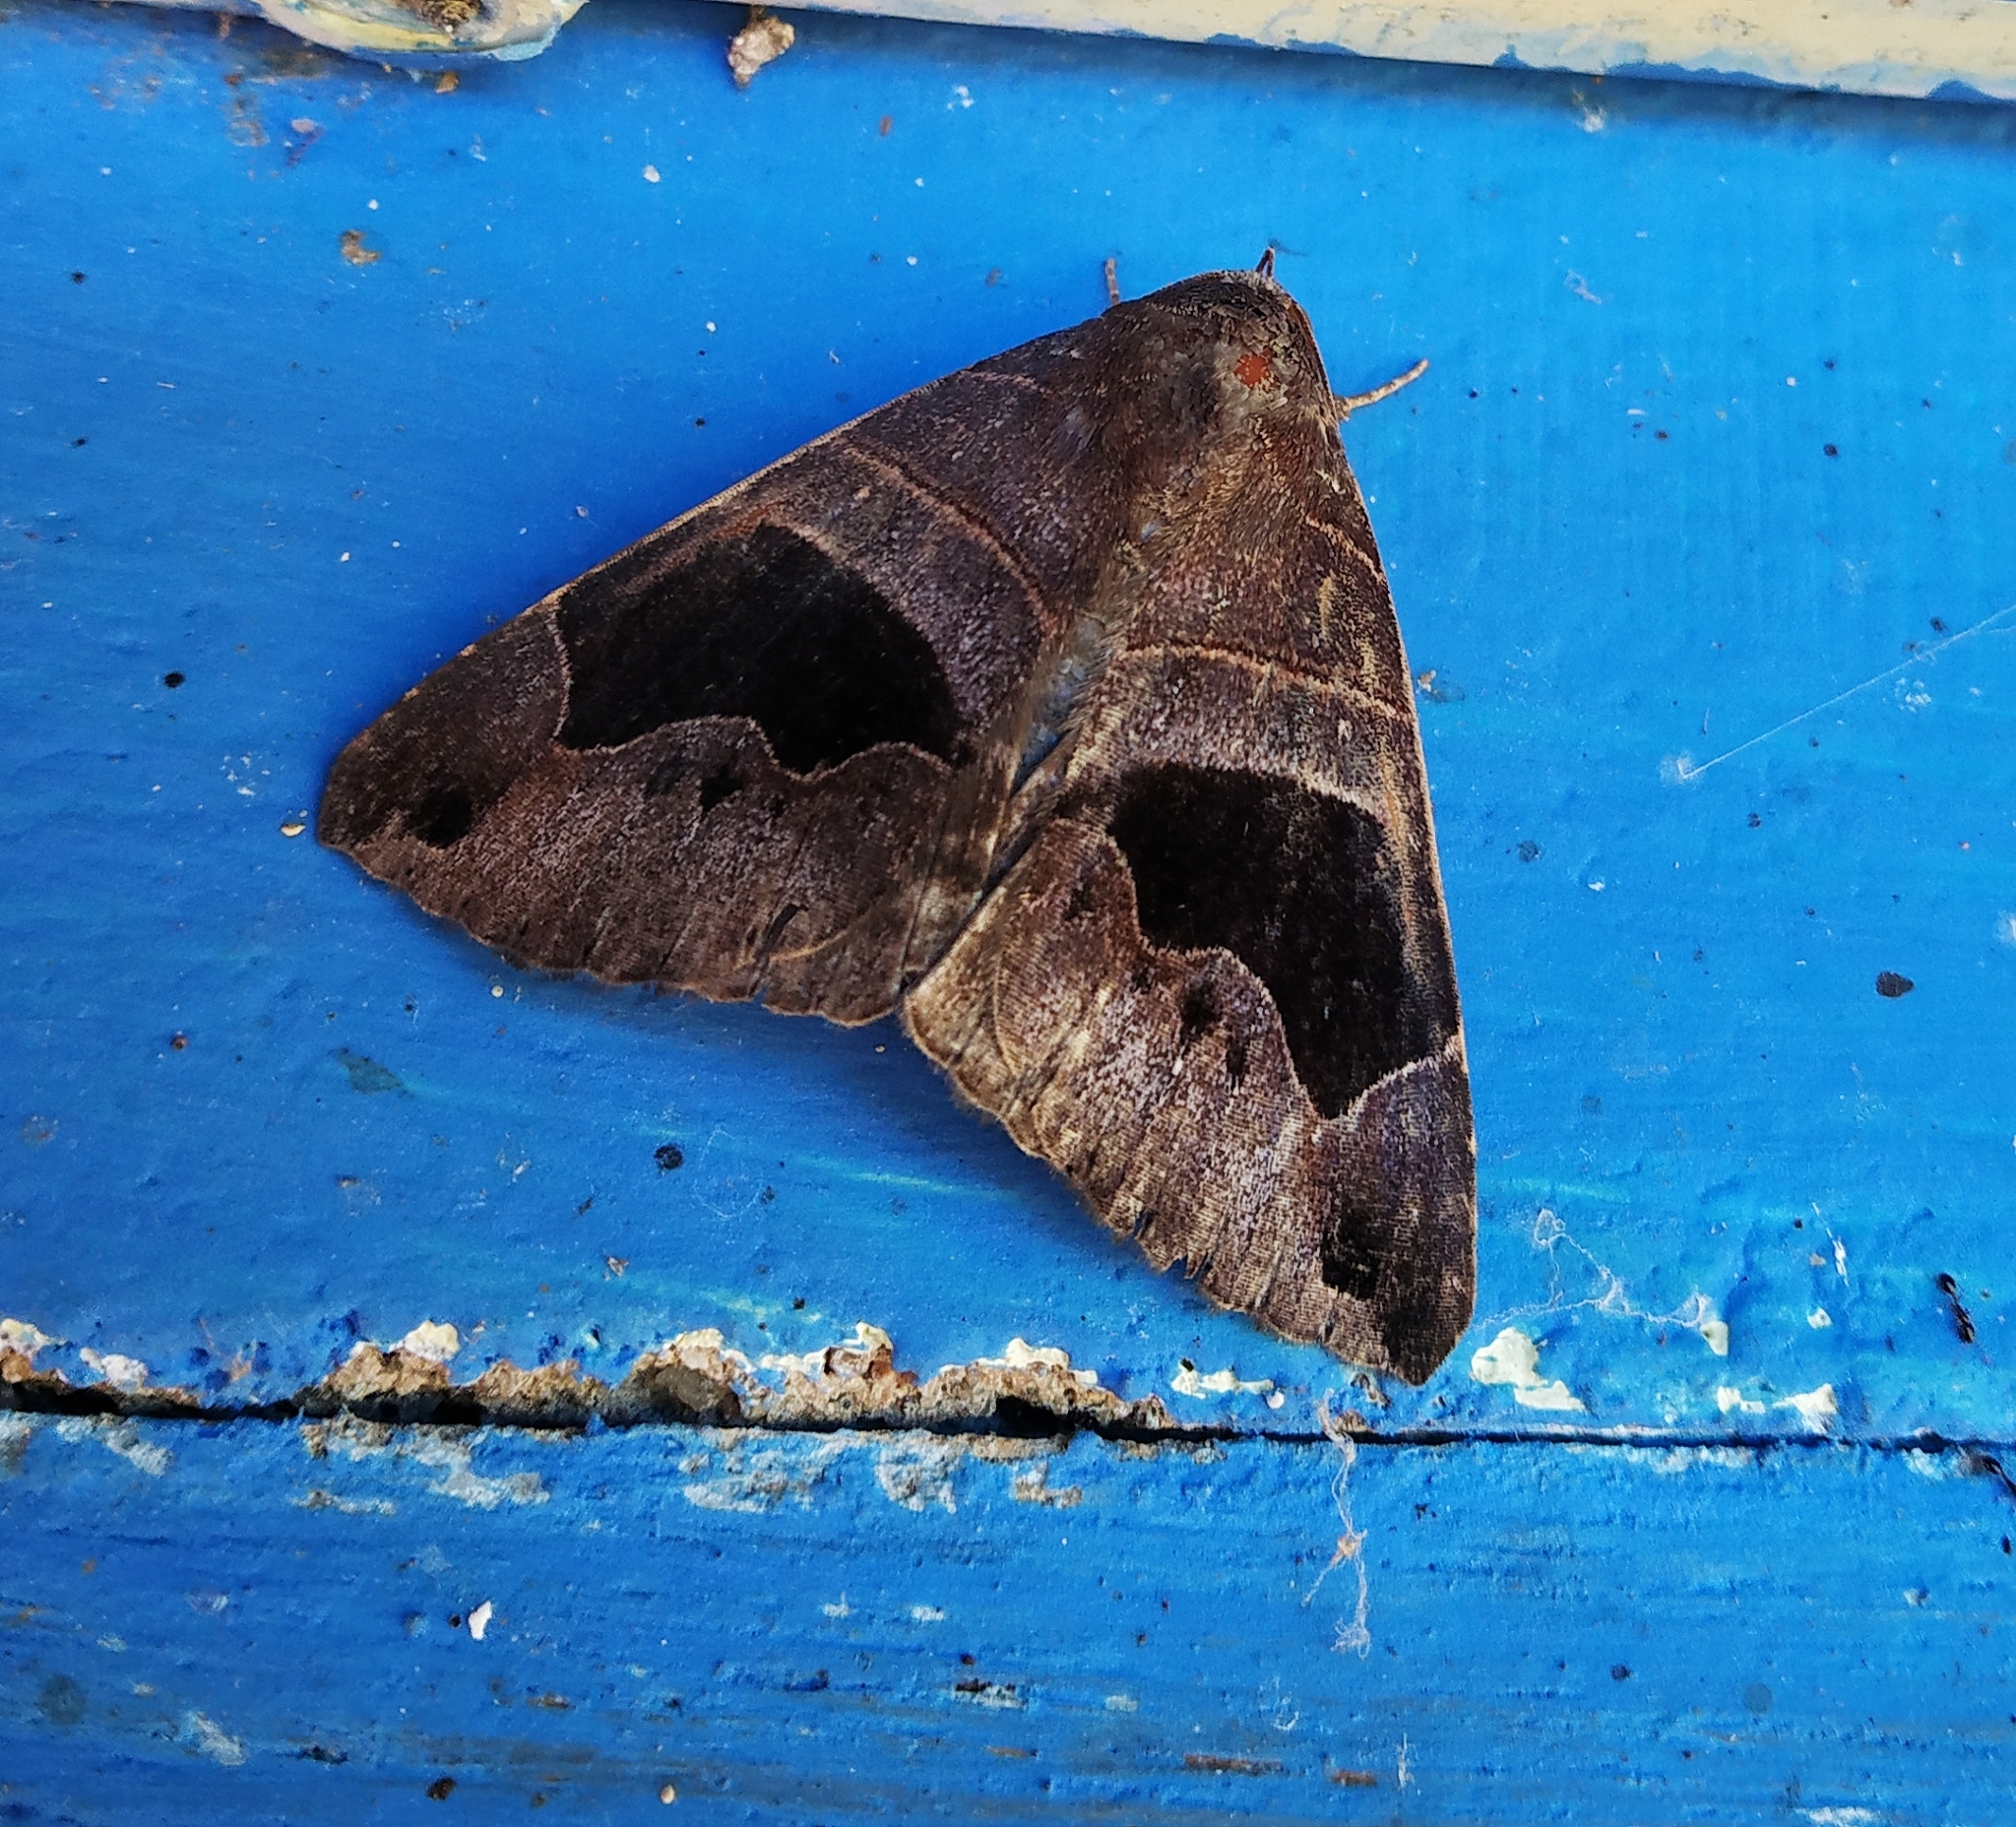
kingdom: Animalia
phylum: Arthropoda
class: Insecta
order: Lepidoptera
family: Erebidae
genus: Bastilla
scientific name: Bastilla joviana
